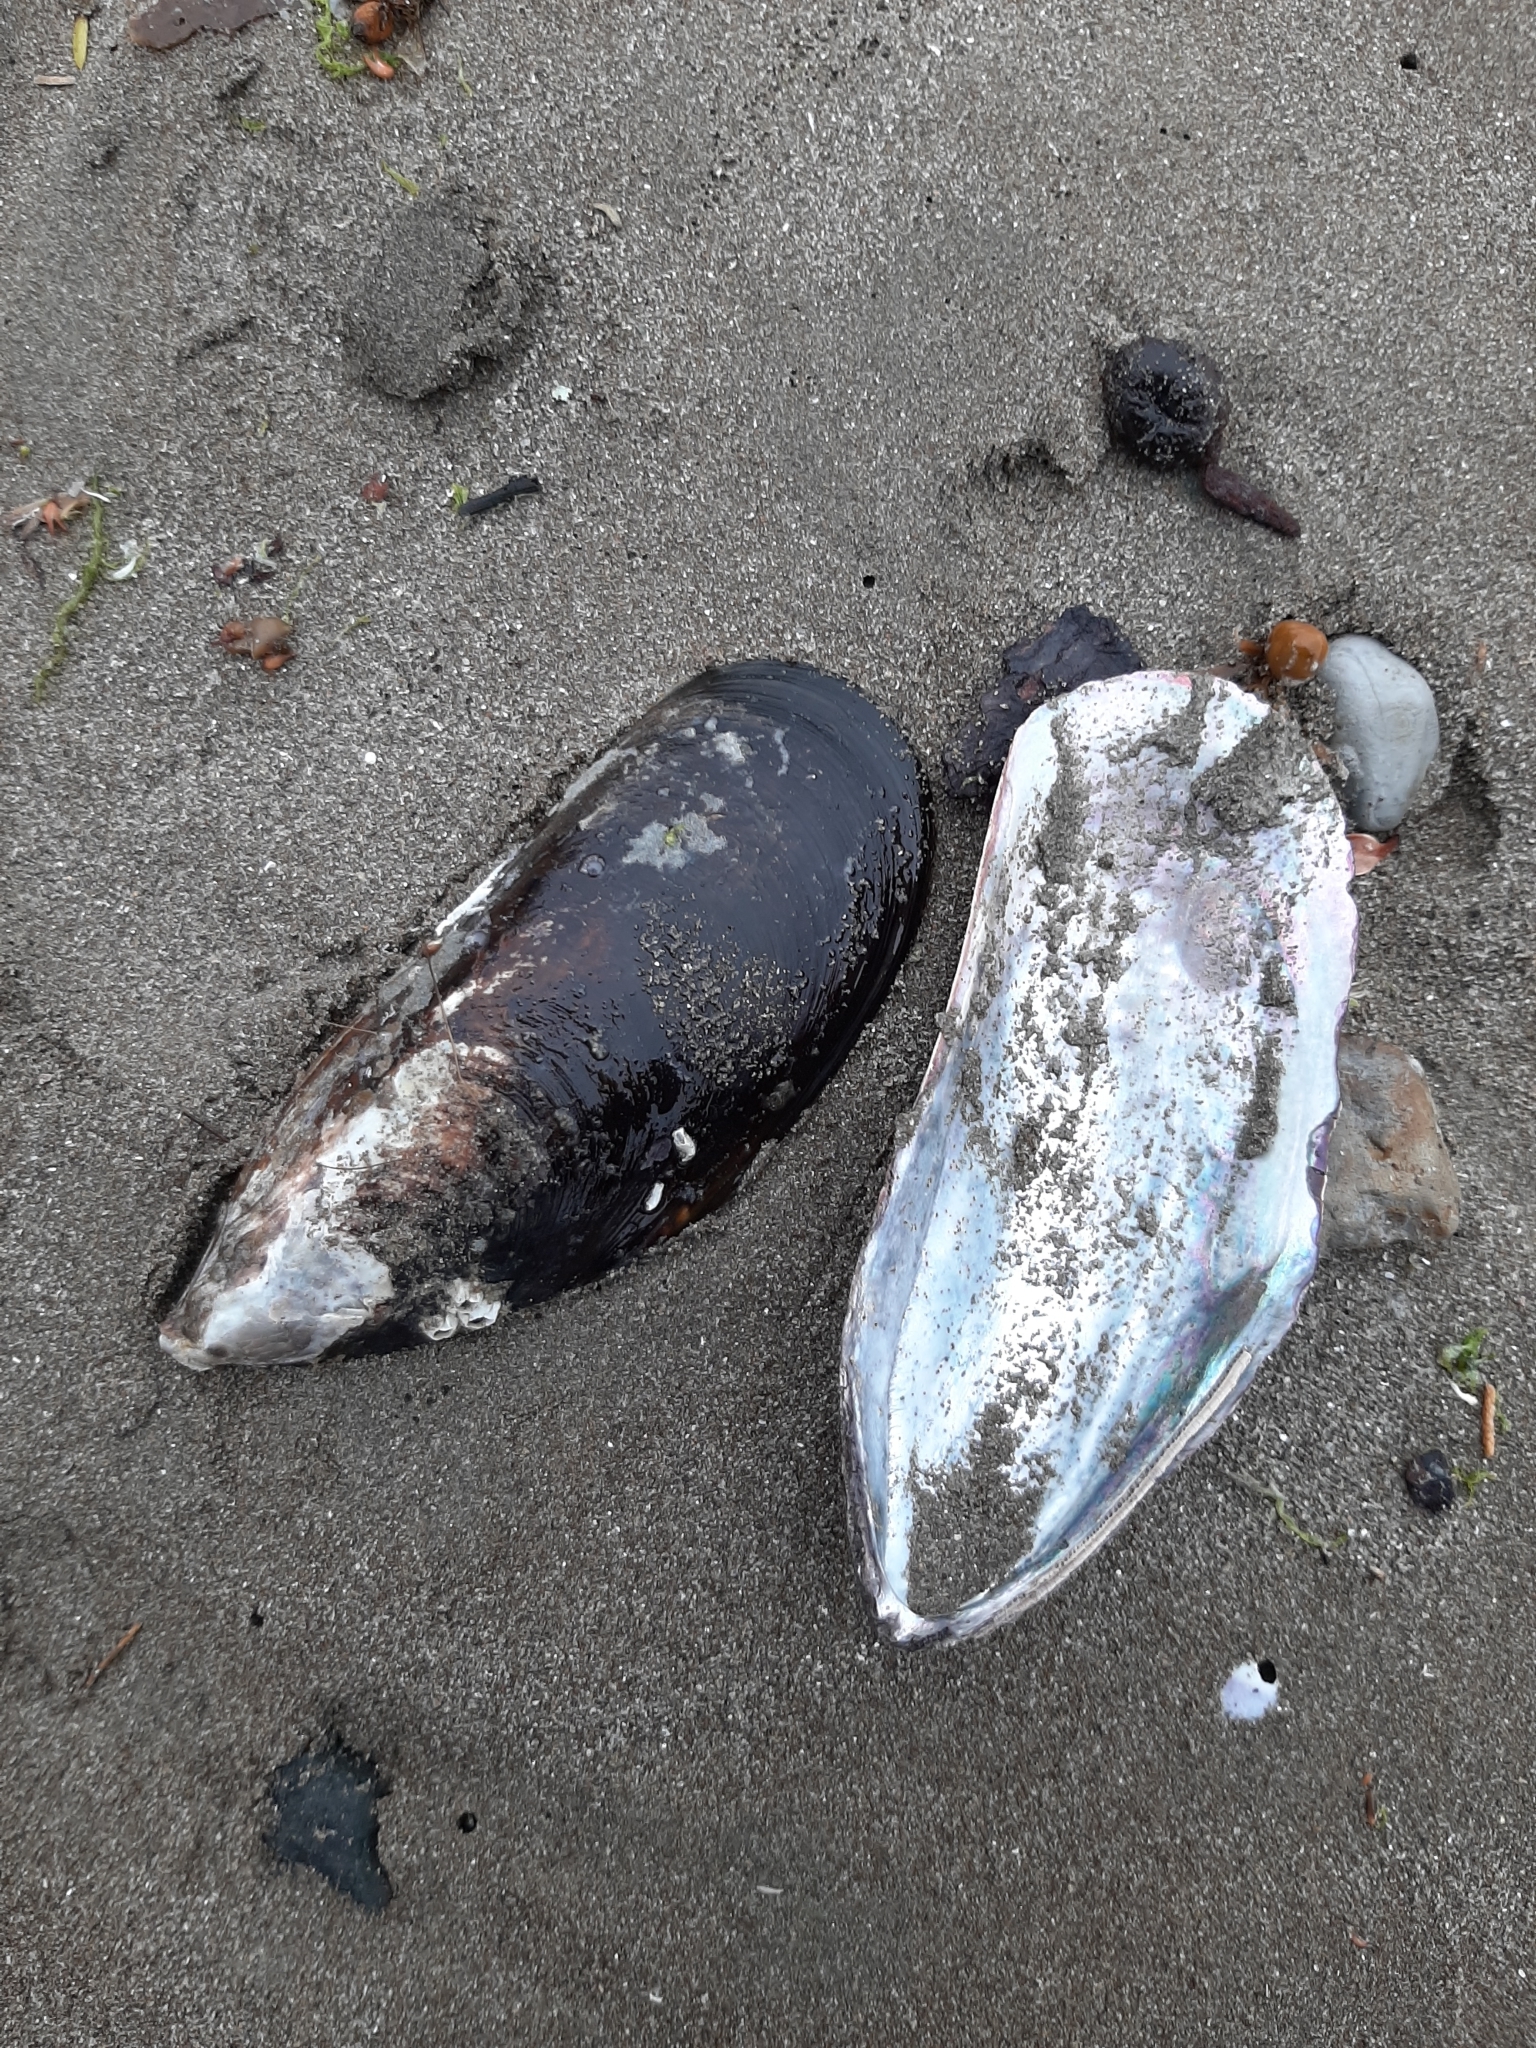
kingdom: Animalia
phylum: Mollusca
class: Bivalvia
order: Mytilida
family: Mytilidae
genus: Perna
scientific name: Perna canaliculus
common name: New zealand greenshelltm
